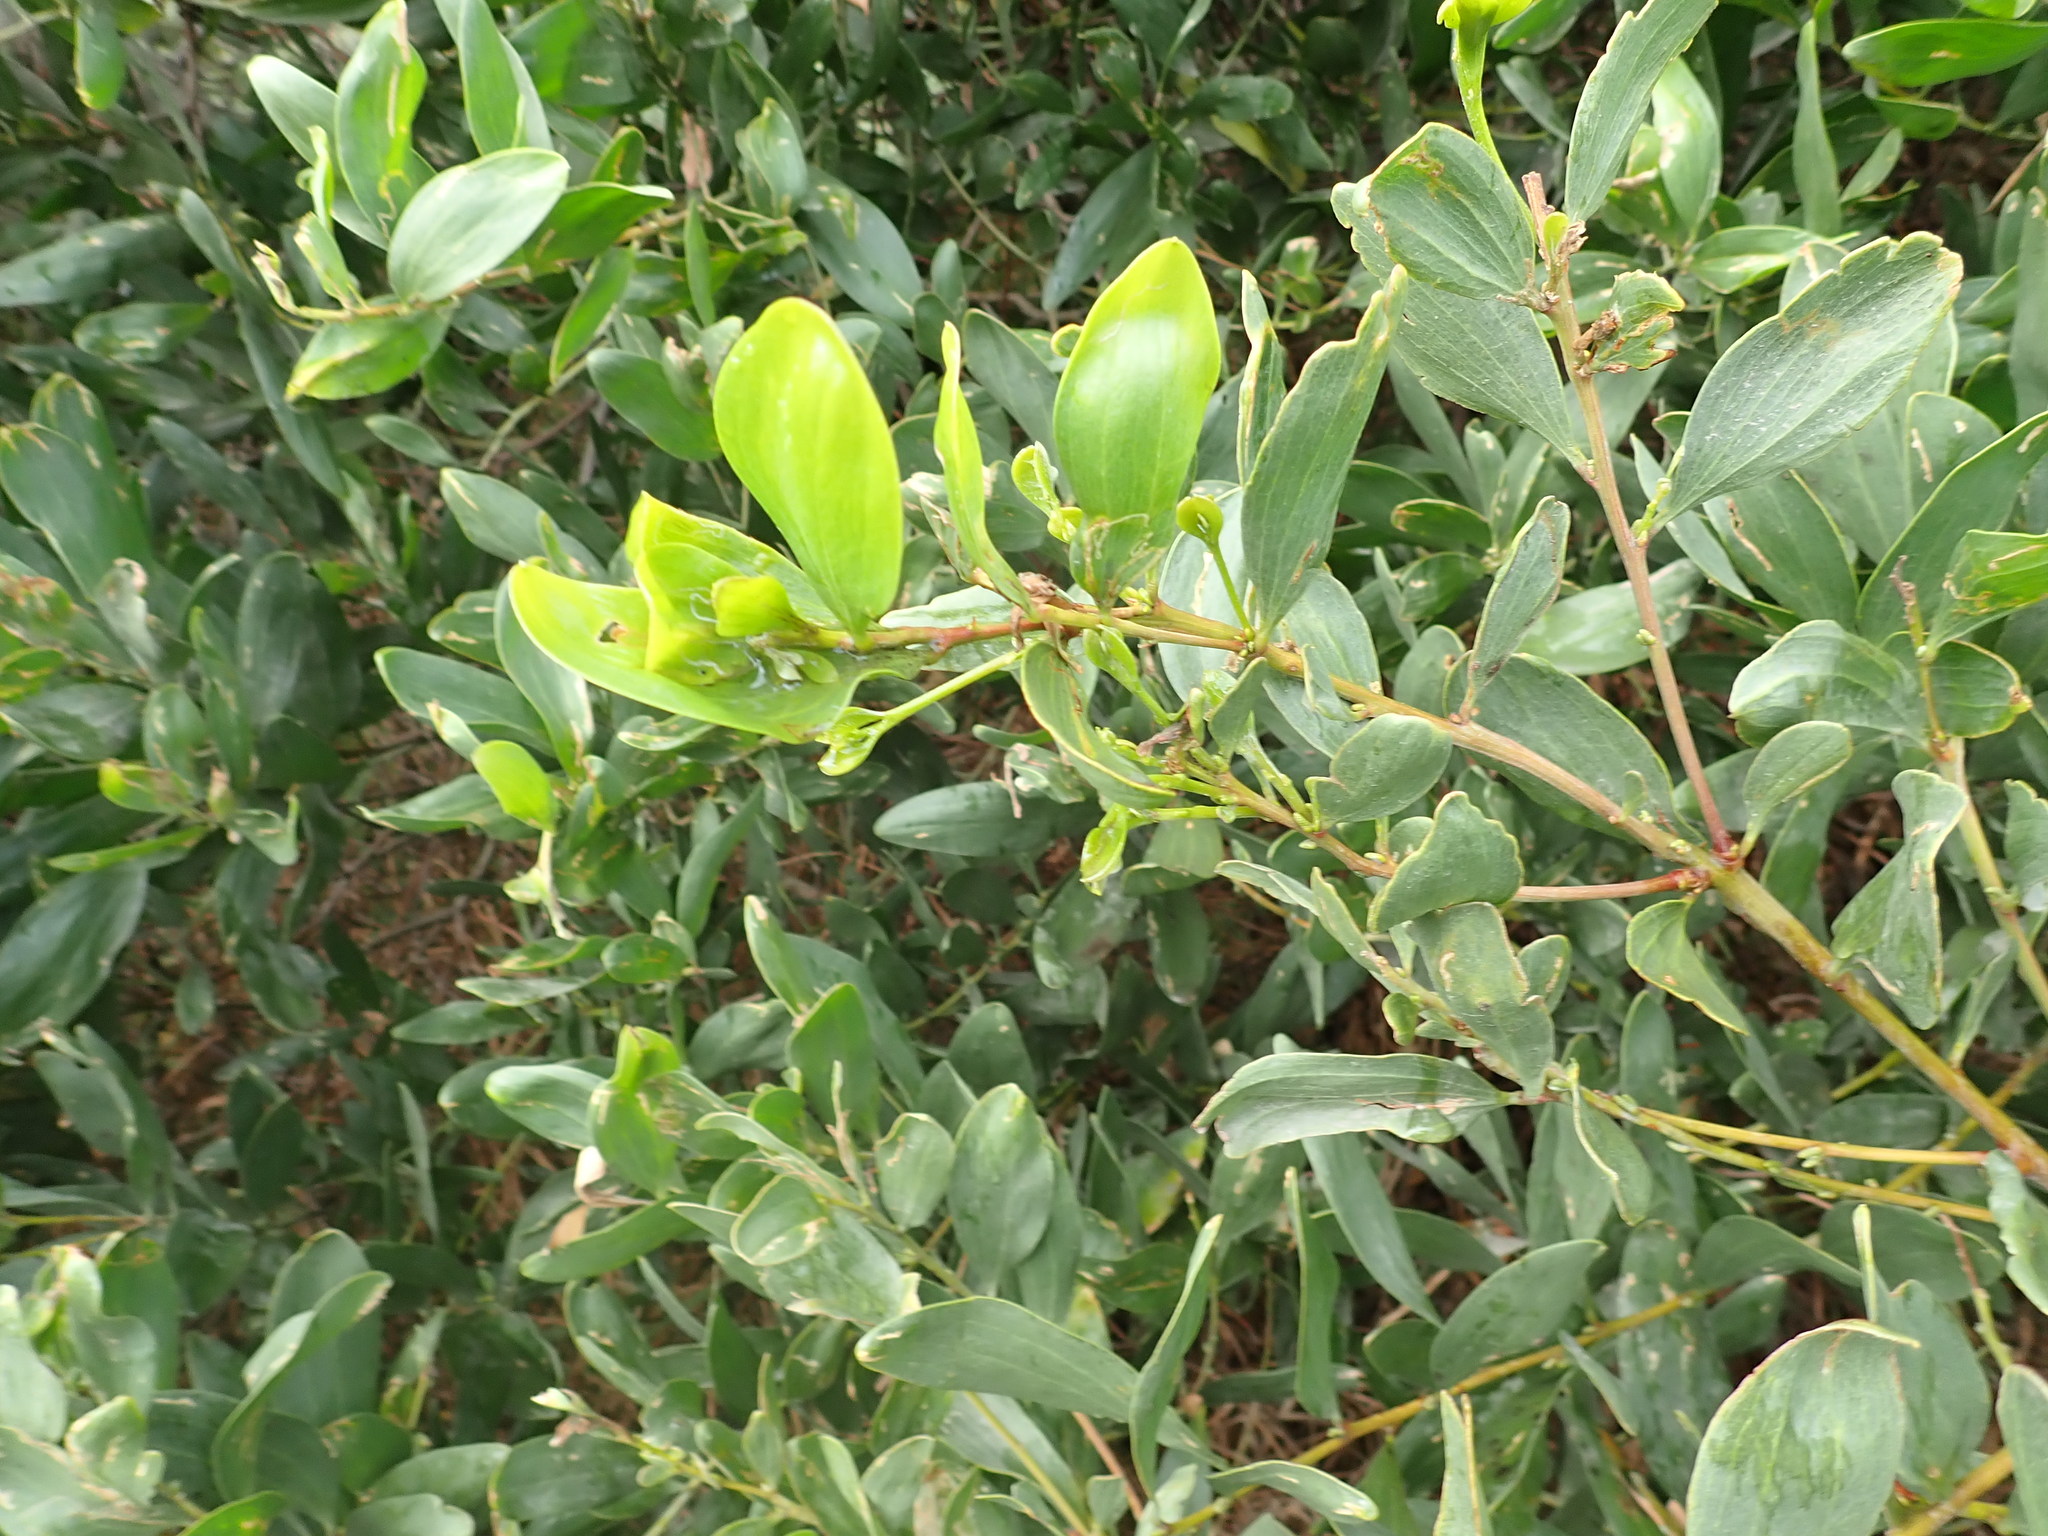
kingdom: Plantae
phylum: Tracheophyta
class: Magnoliopsida
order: Fabales
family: Fabaceae
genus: Acacia
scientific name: Acacia longifolia
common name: Sydney golden wattle
